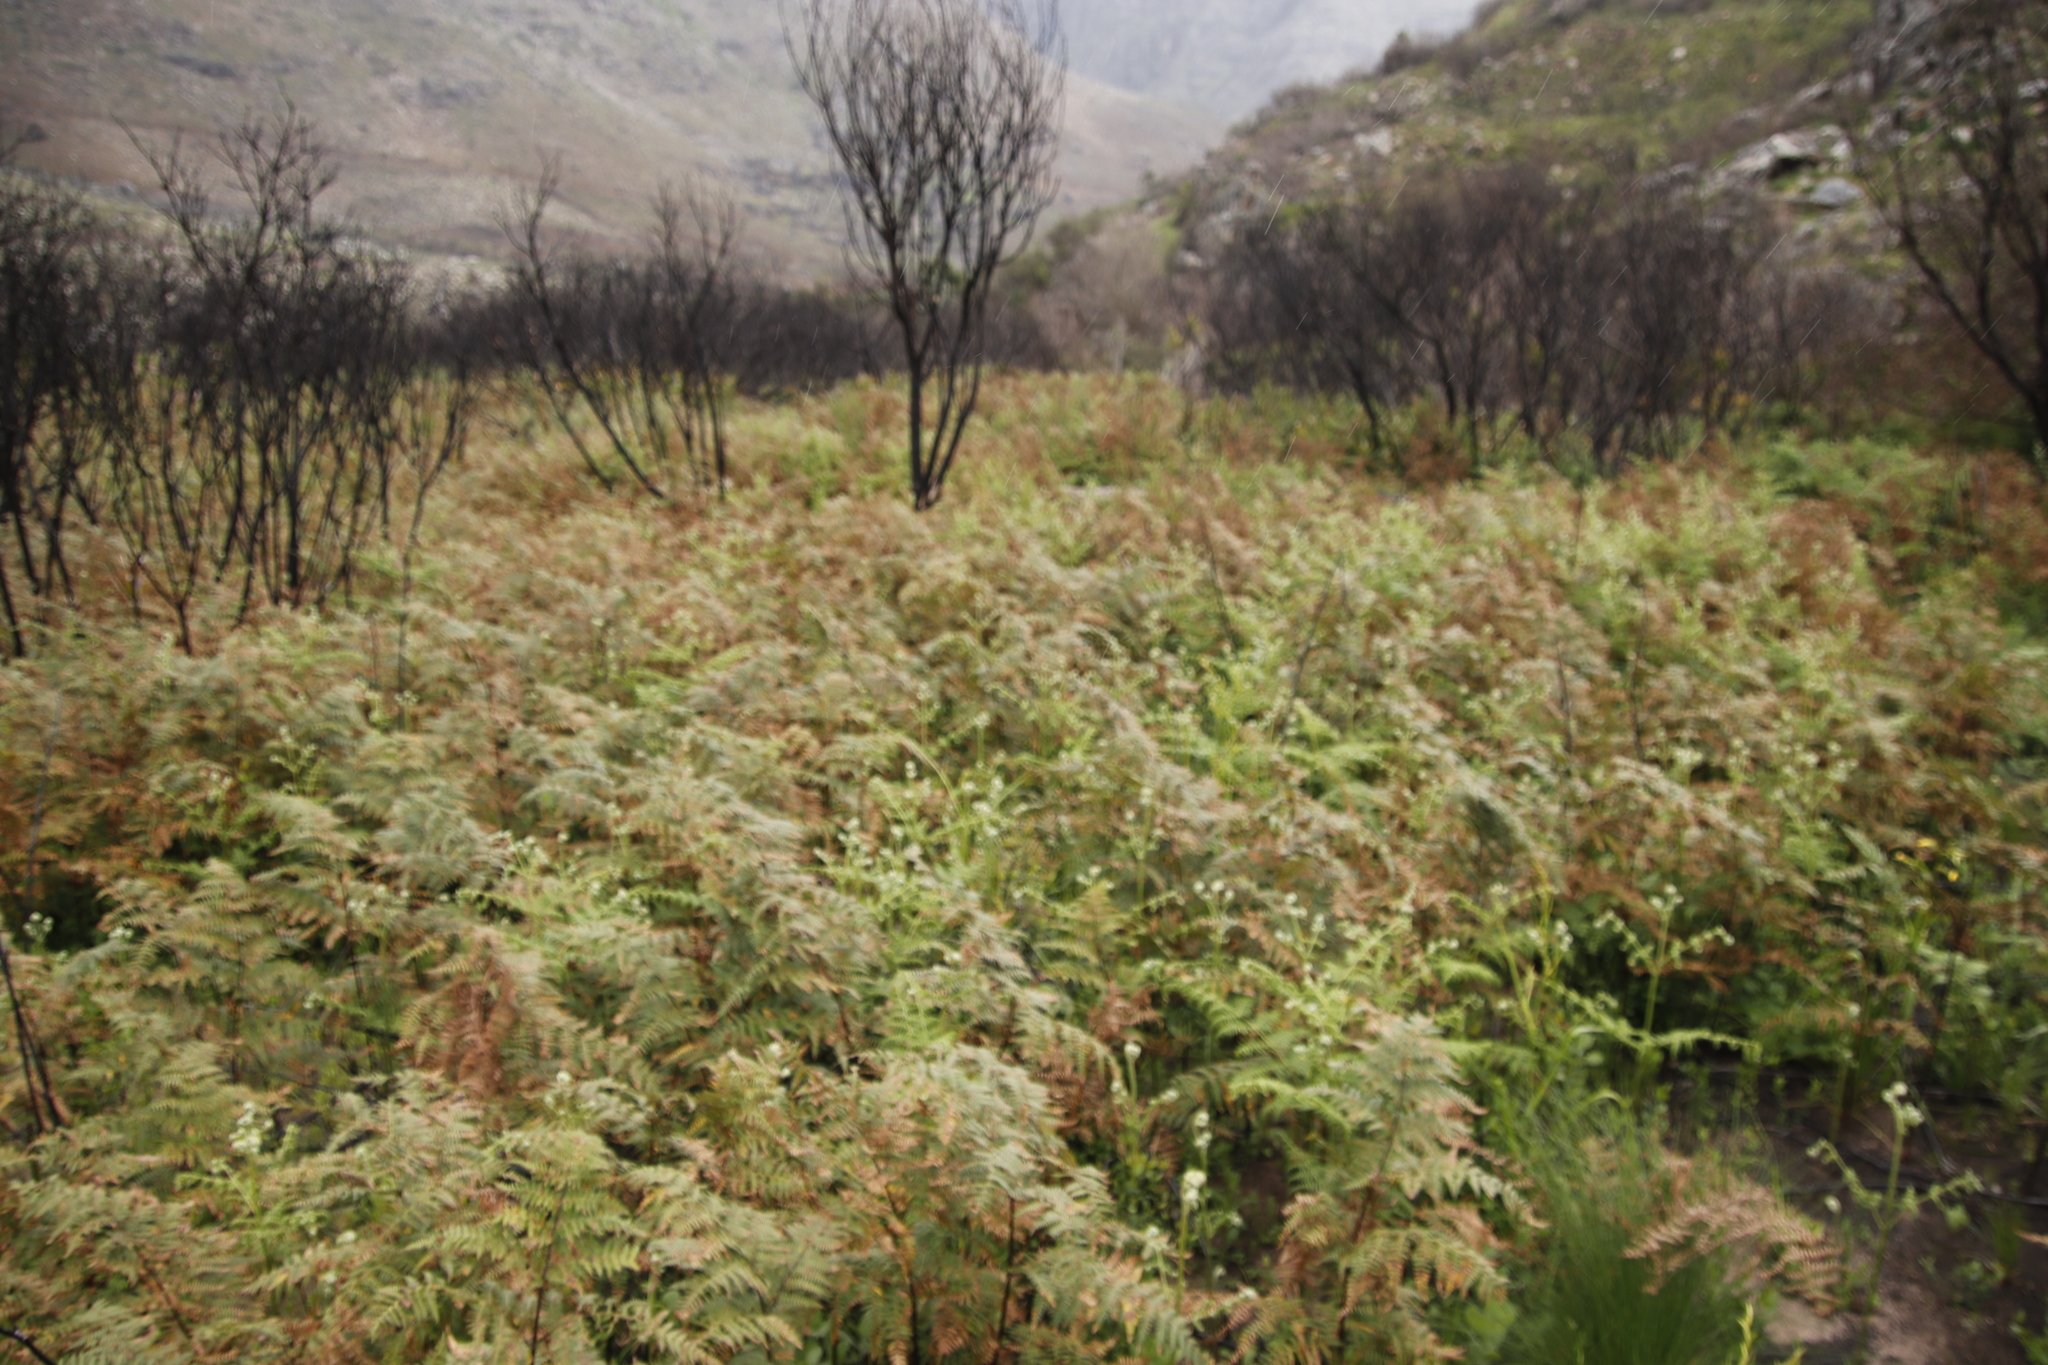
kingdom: Plantae
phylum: Tracheophyta
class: Polypodiopsida
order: Polypodiales
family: Dennstaedtiaceae
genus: Pteridium
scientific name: Pteridium aquilinum
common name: Bracken
